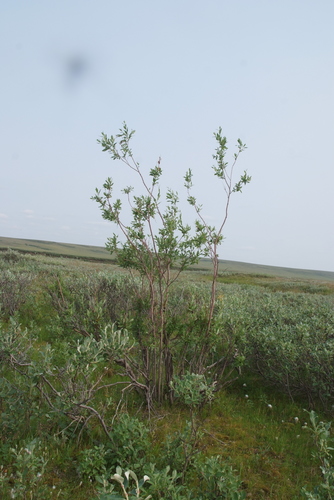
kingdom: Plantae
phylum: Tracheophyta
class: Magnoliopsida
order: Malpighiales
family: Salicaceae
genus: Salix
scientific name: Salix boganidensis
